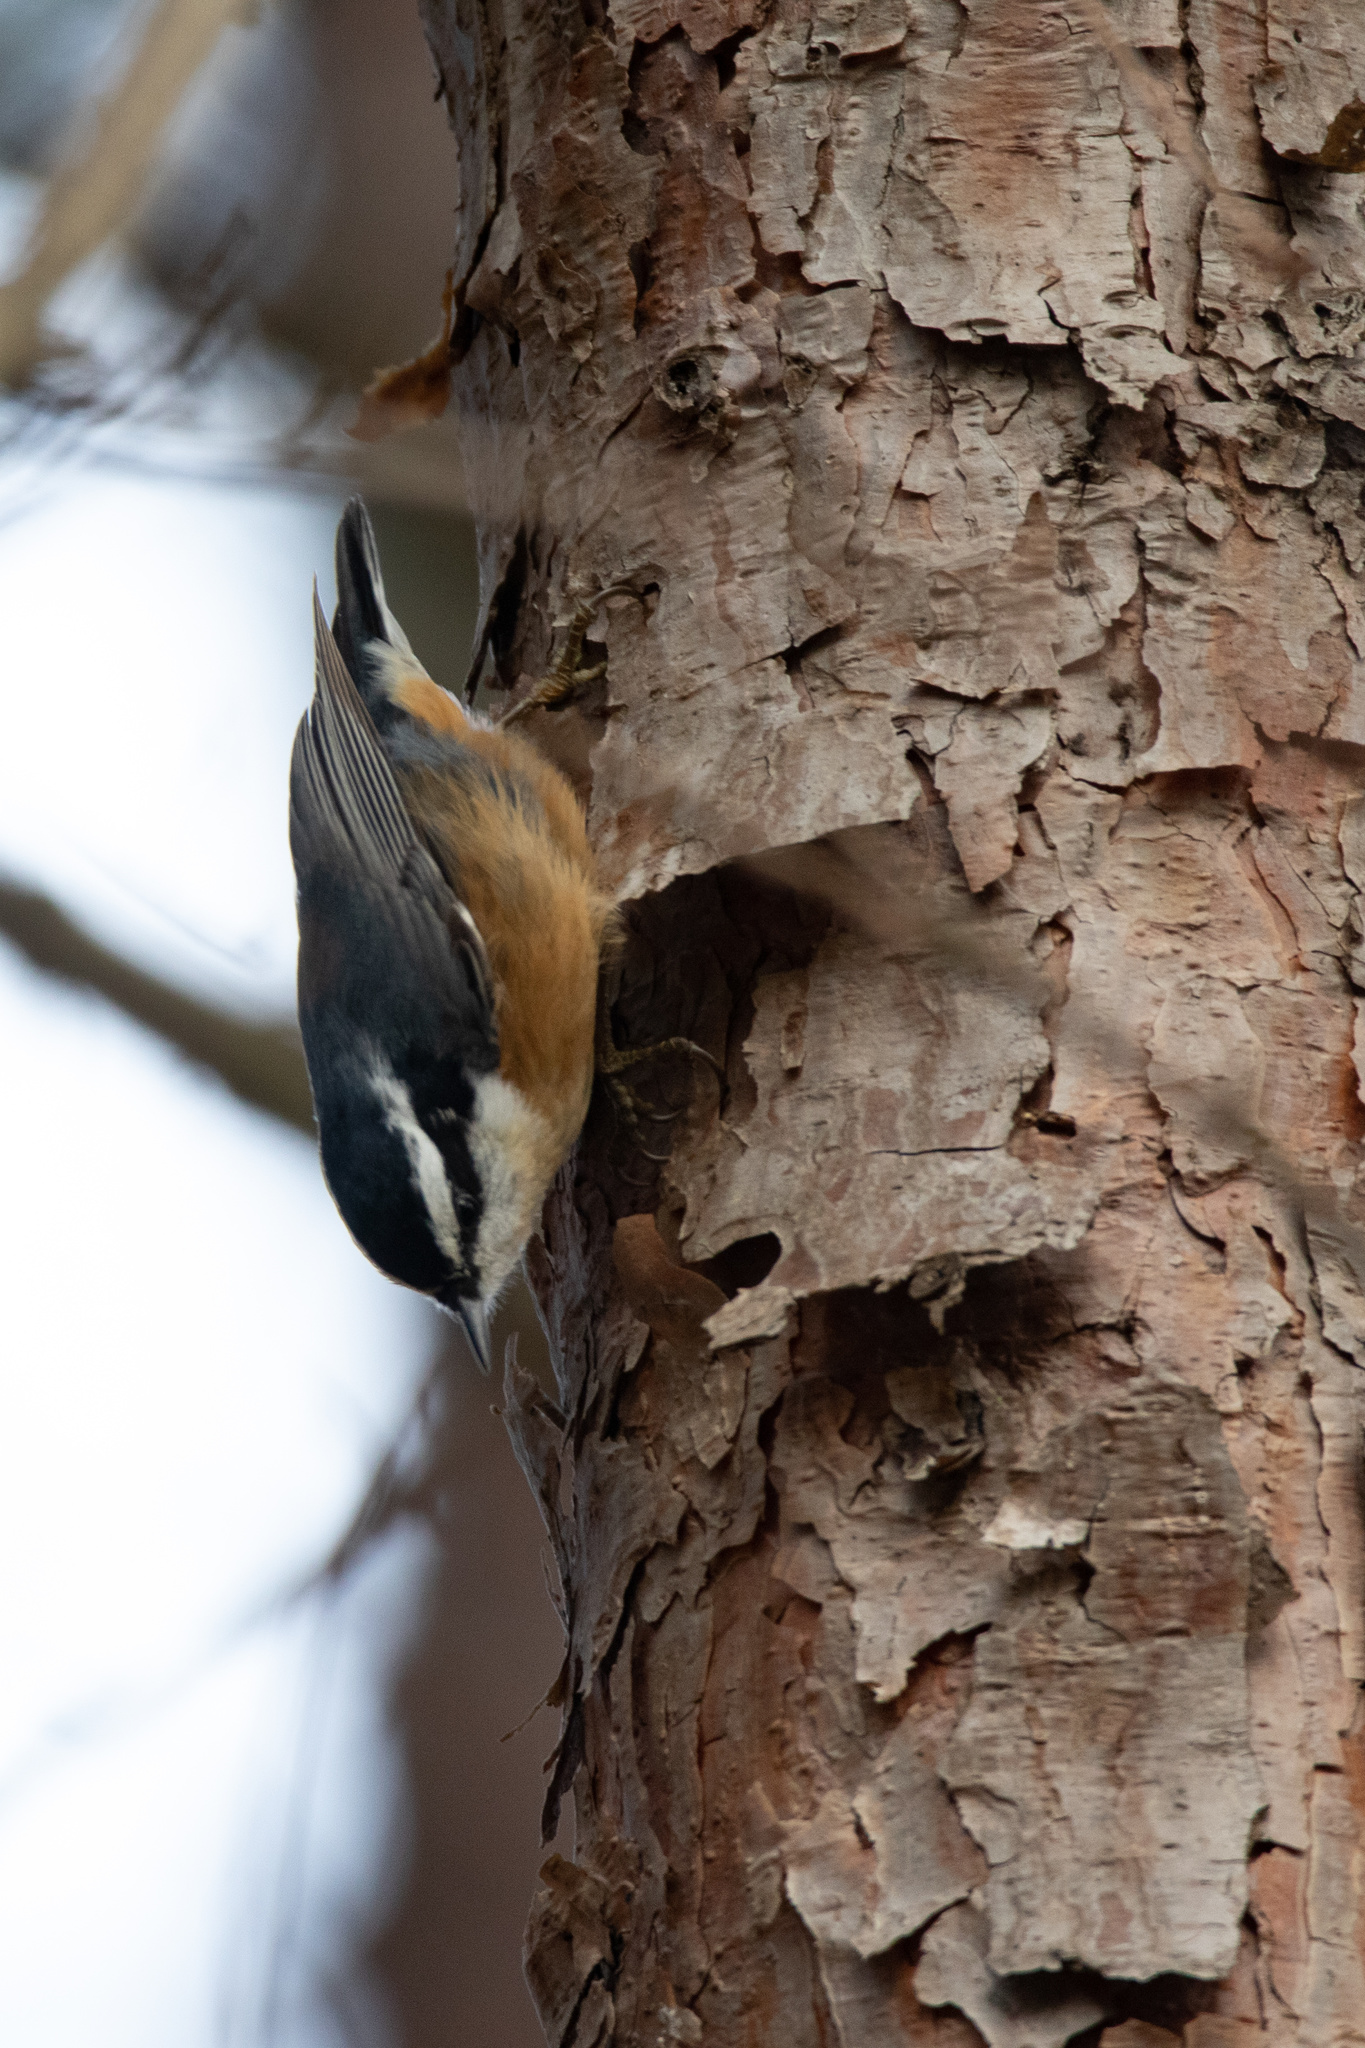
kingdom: Animalia
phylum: Chordata
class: Aves
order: Passeriformes
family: Sittidae
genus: Sitta
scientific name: Sitta canadensis
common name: Red-breasted nuthatch
